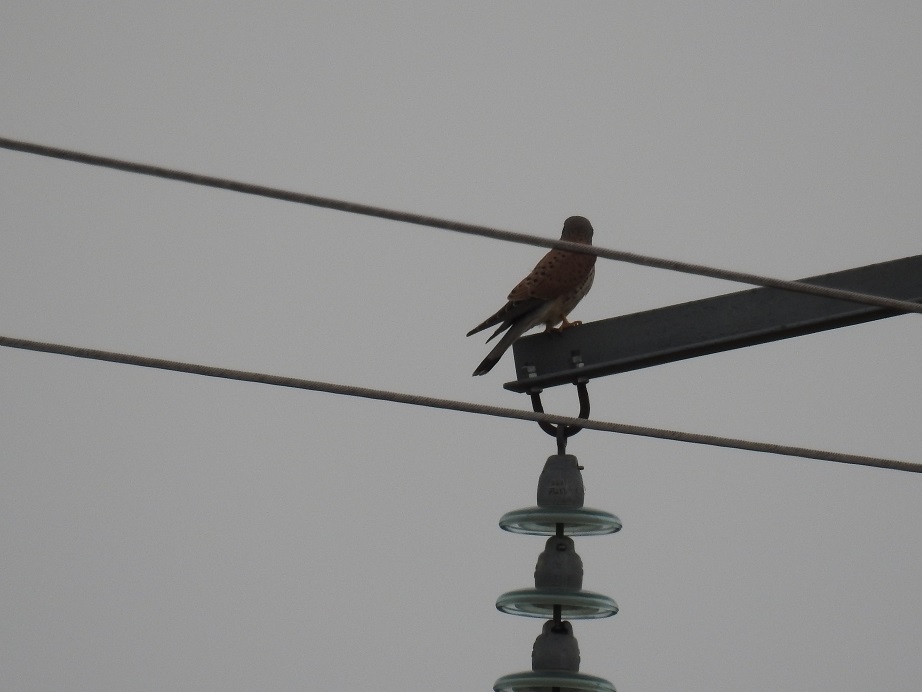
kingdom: Animalia
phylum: Chordata
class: Aves
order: Falconiformes
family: Falconidae
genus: Falco
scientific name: Falco tinnunculus
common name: Common kestrel
